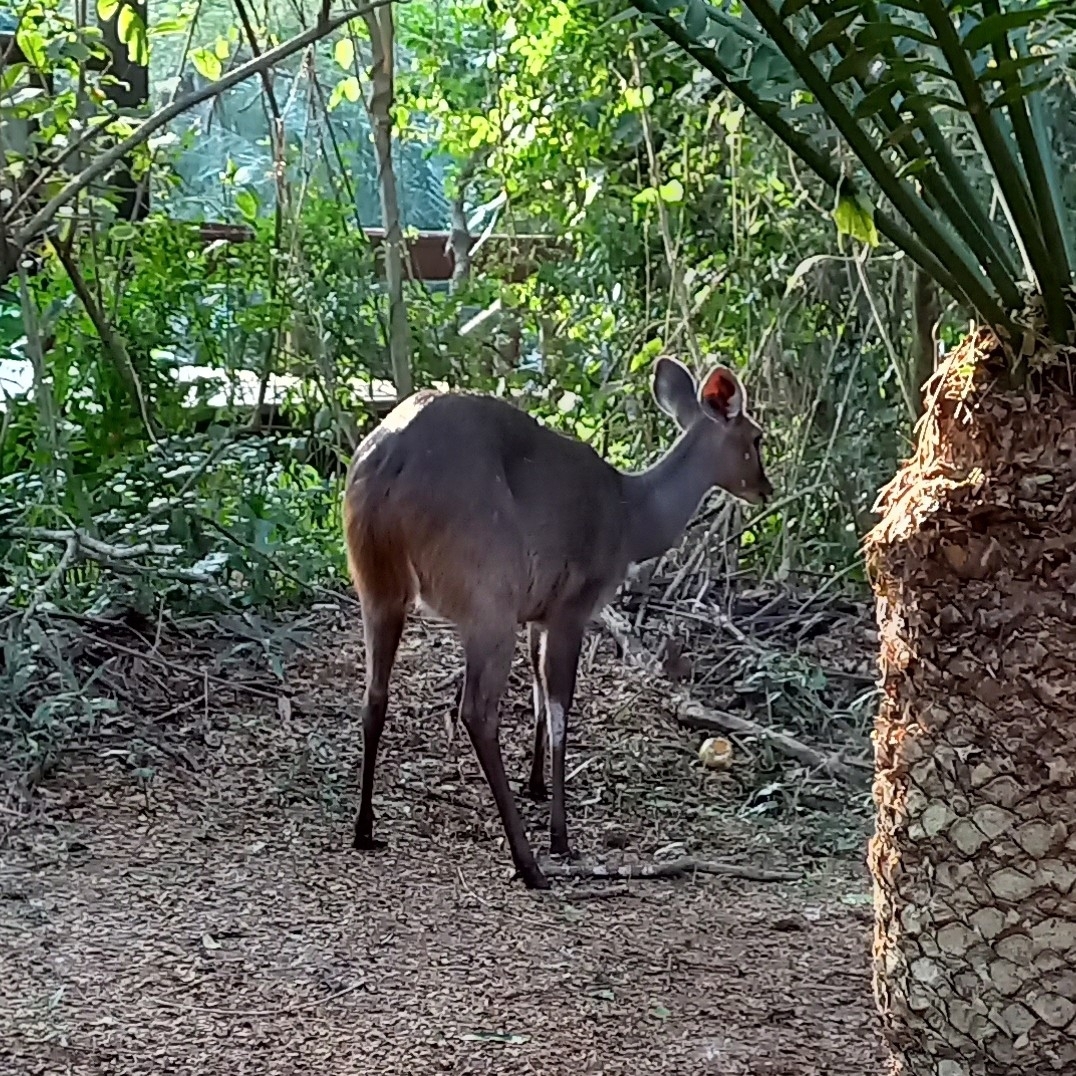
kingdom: Animalia
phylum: Chordata
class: Mammalia
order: Artiodactyla
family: Bovidae
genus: Tragelaphus
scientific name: Tragelaphus scriptus
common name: Bushbuck
